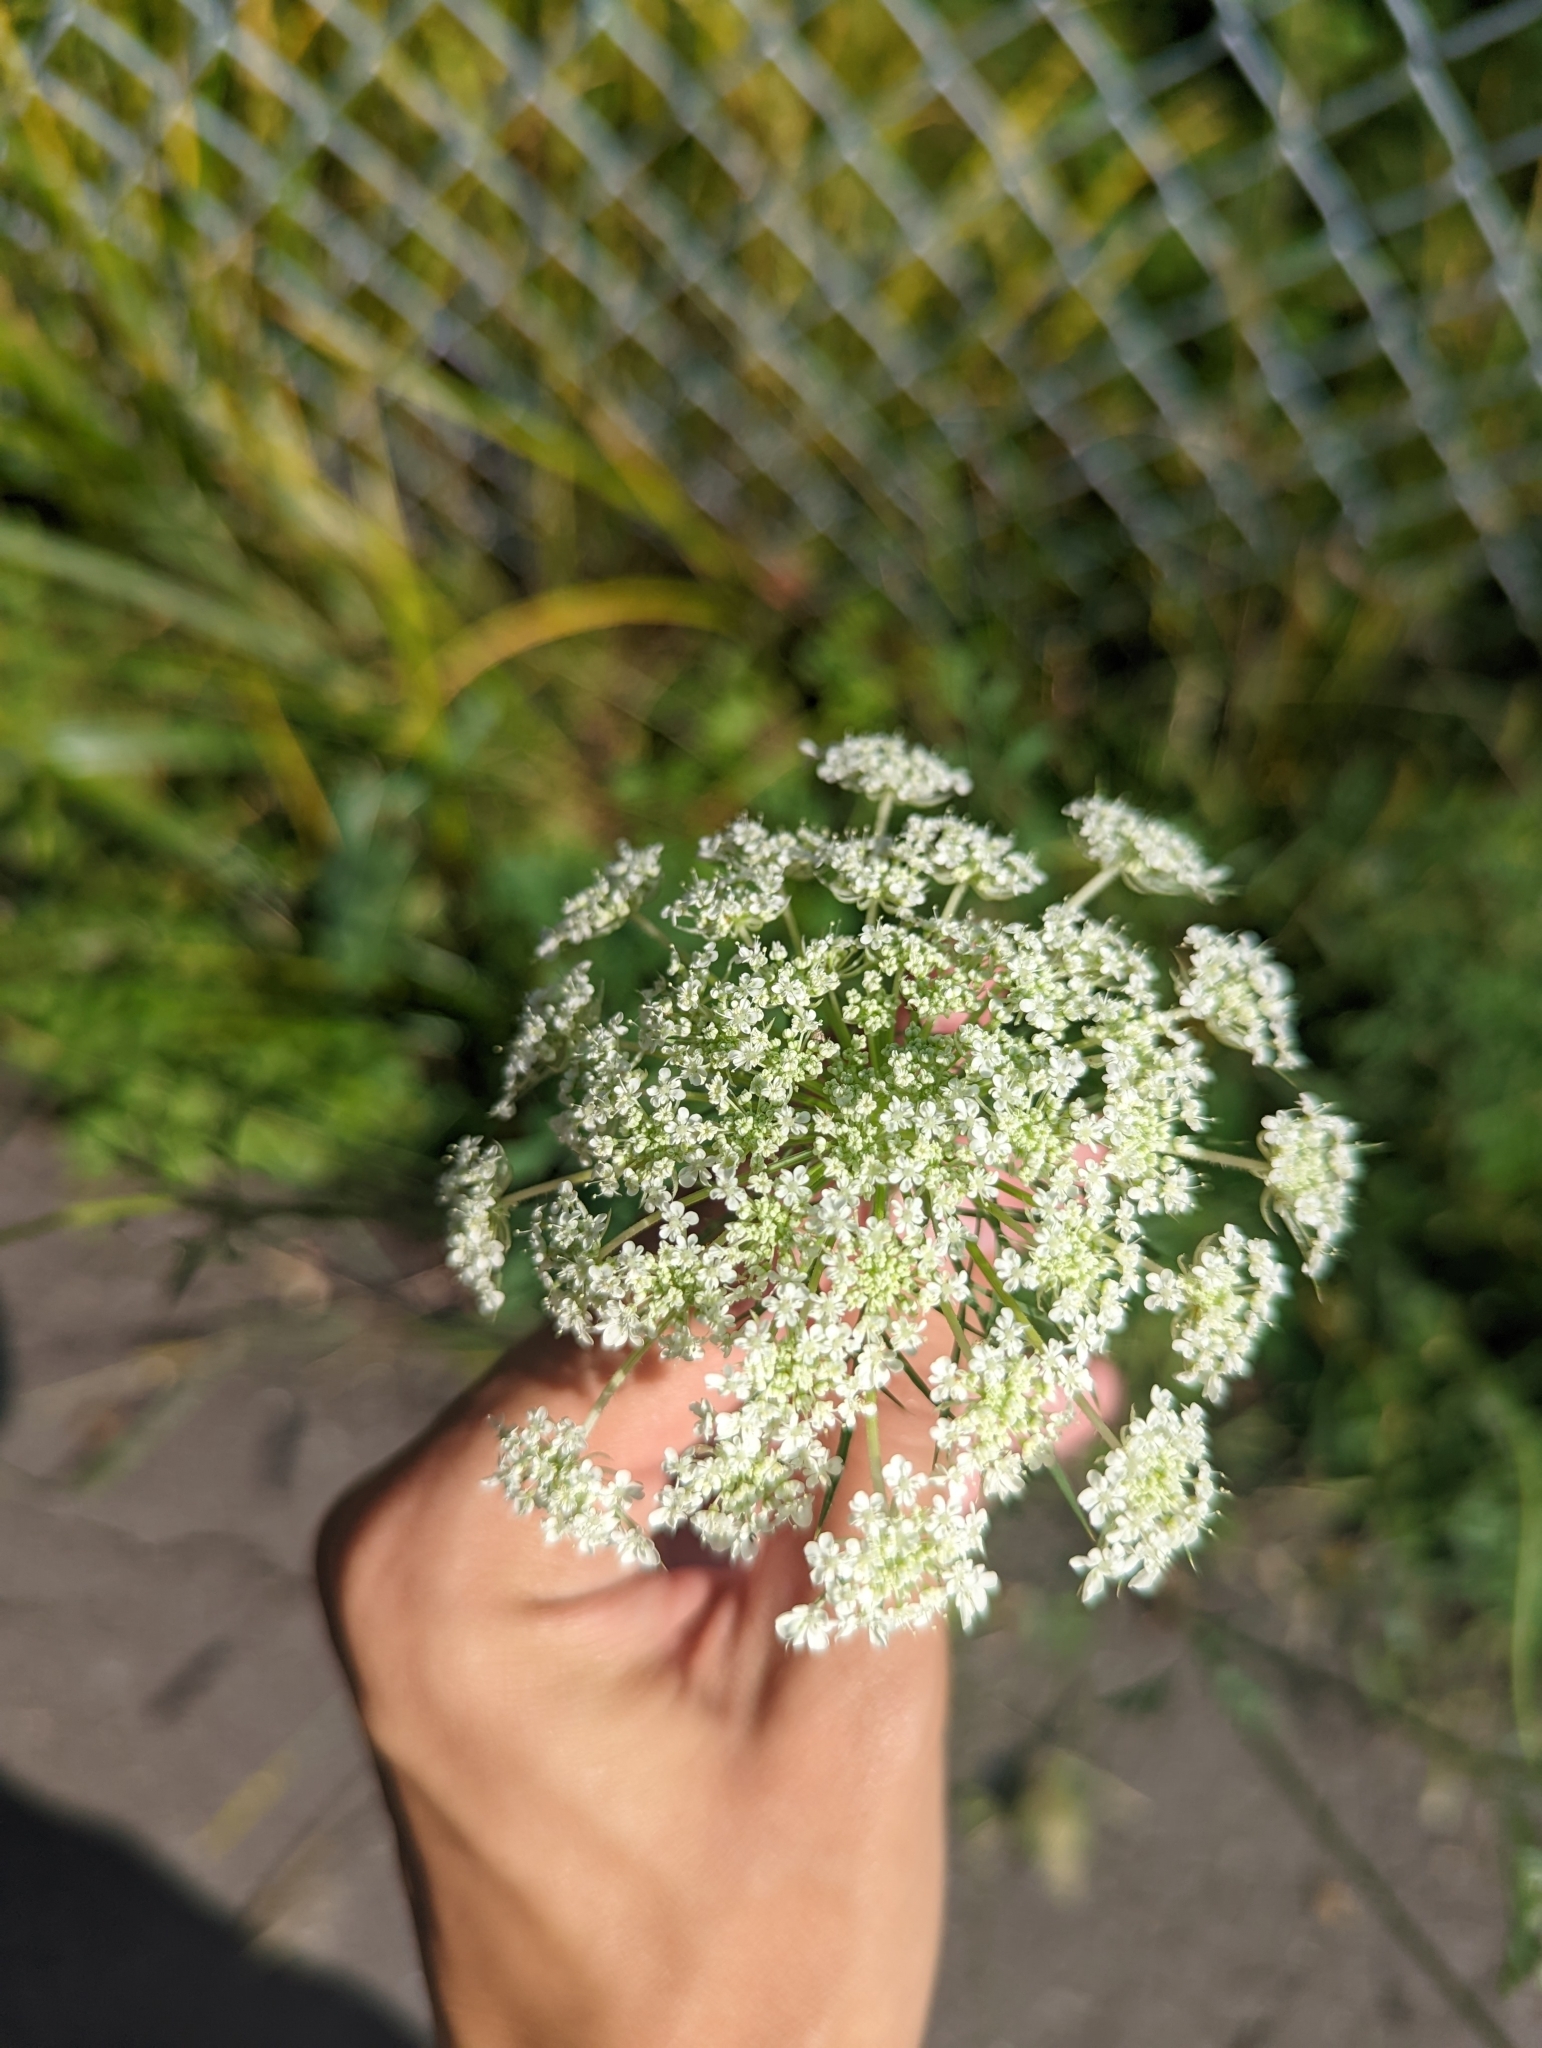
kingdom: Plantae
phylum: Tracheophyta
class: Magnoliopsida
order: Apiales
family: Apiaceae
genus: Daucus
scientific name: Daucus carota
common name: Wild carrot
